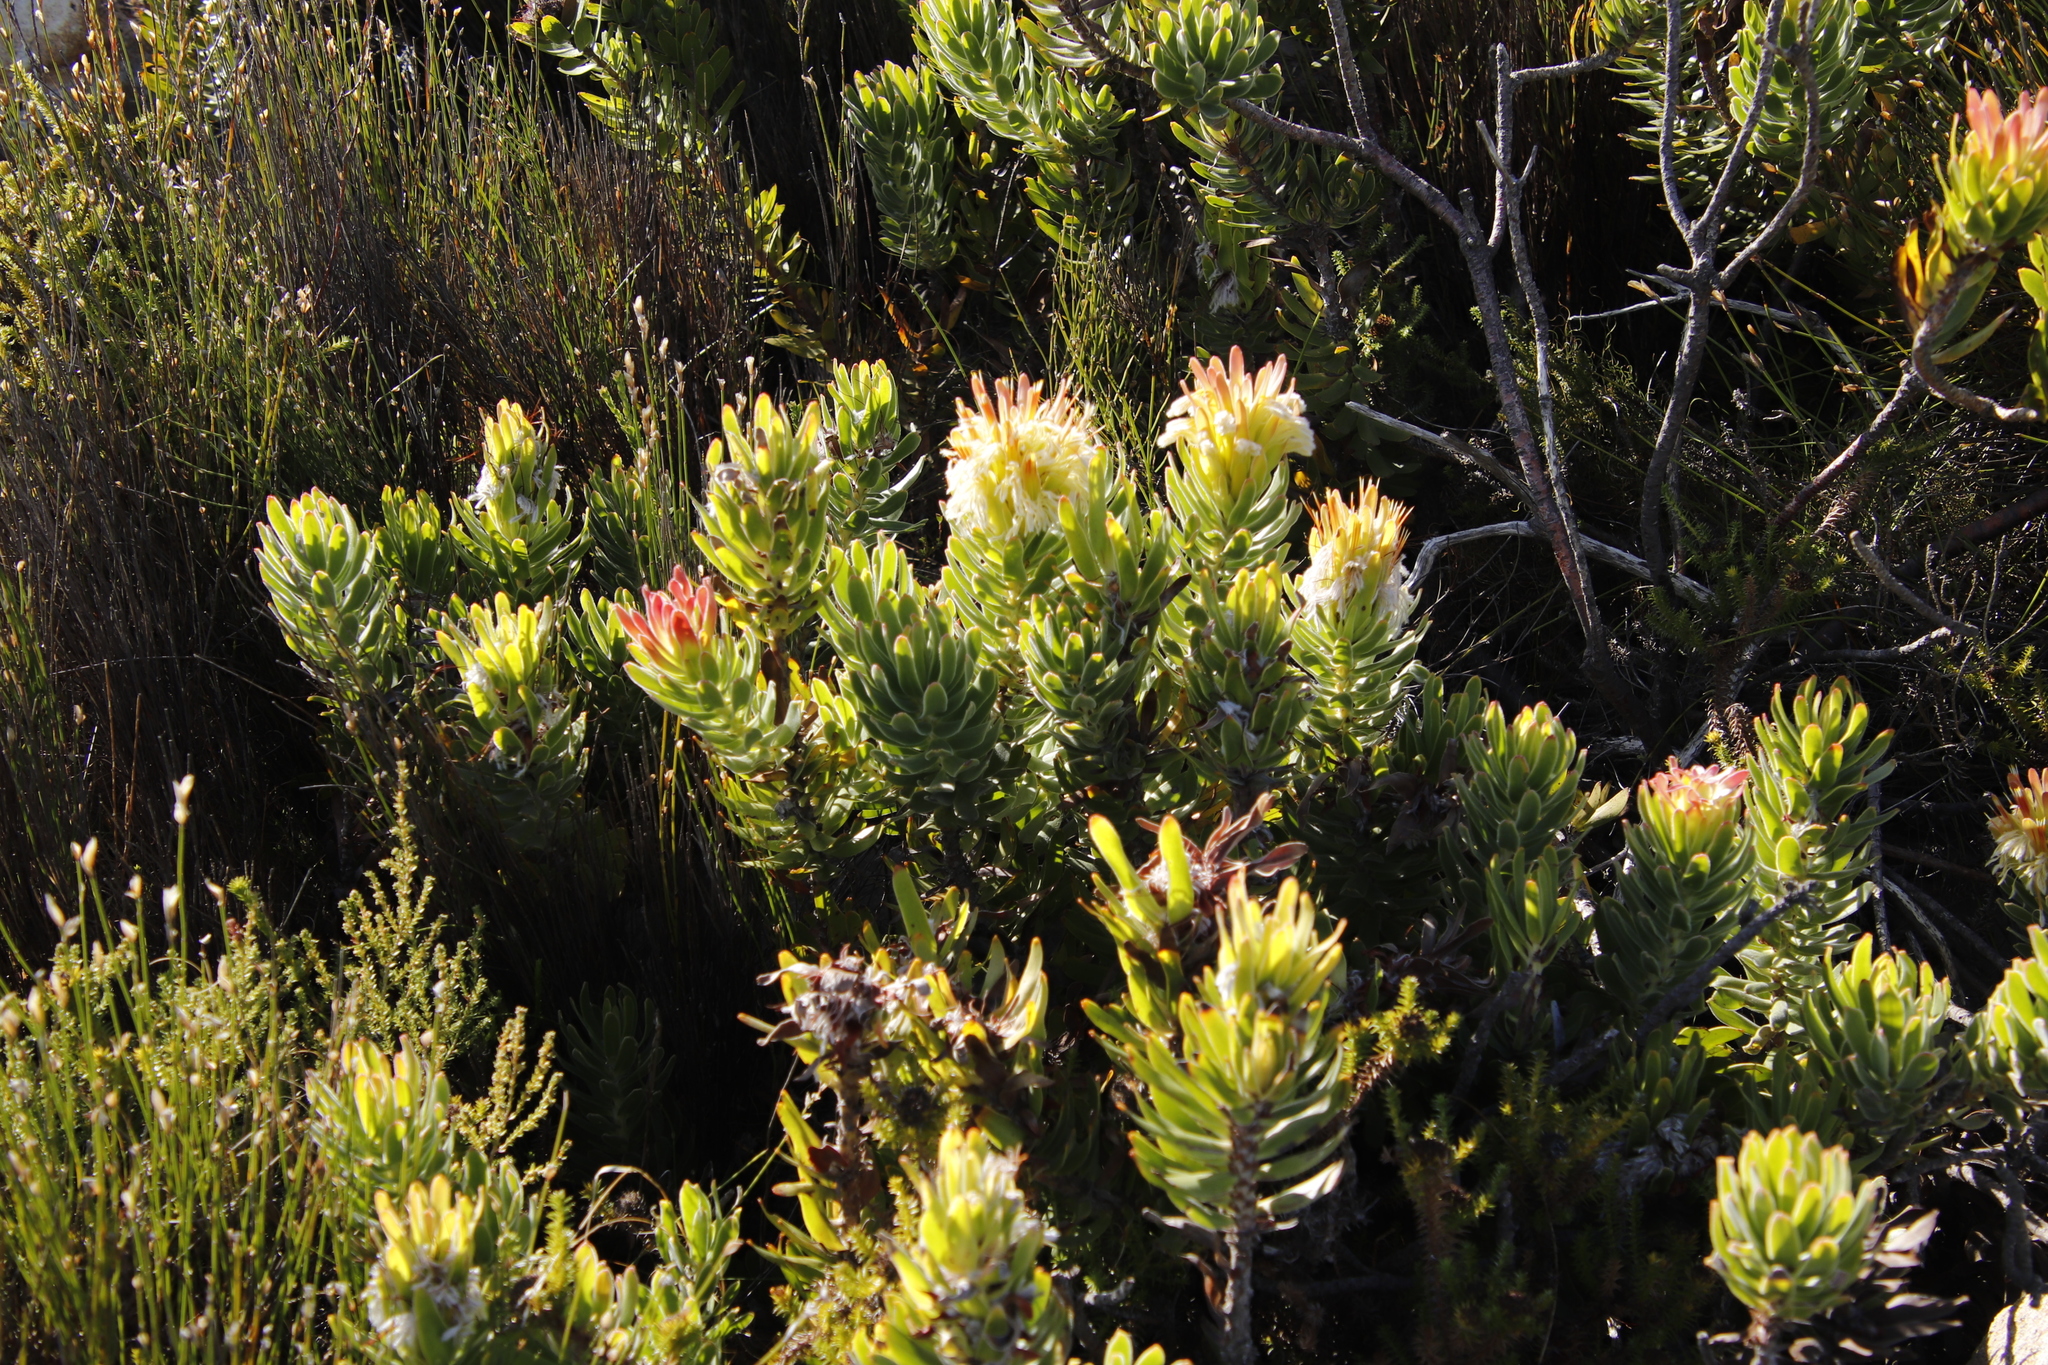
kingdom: Plantae
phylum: Tracheophyta
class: Magnoliopsida
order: Proteales
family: Proteaceae
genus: Mimetes
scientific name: Mimetes cucullatus
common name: Common pagoda
